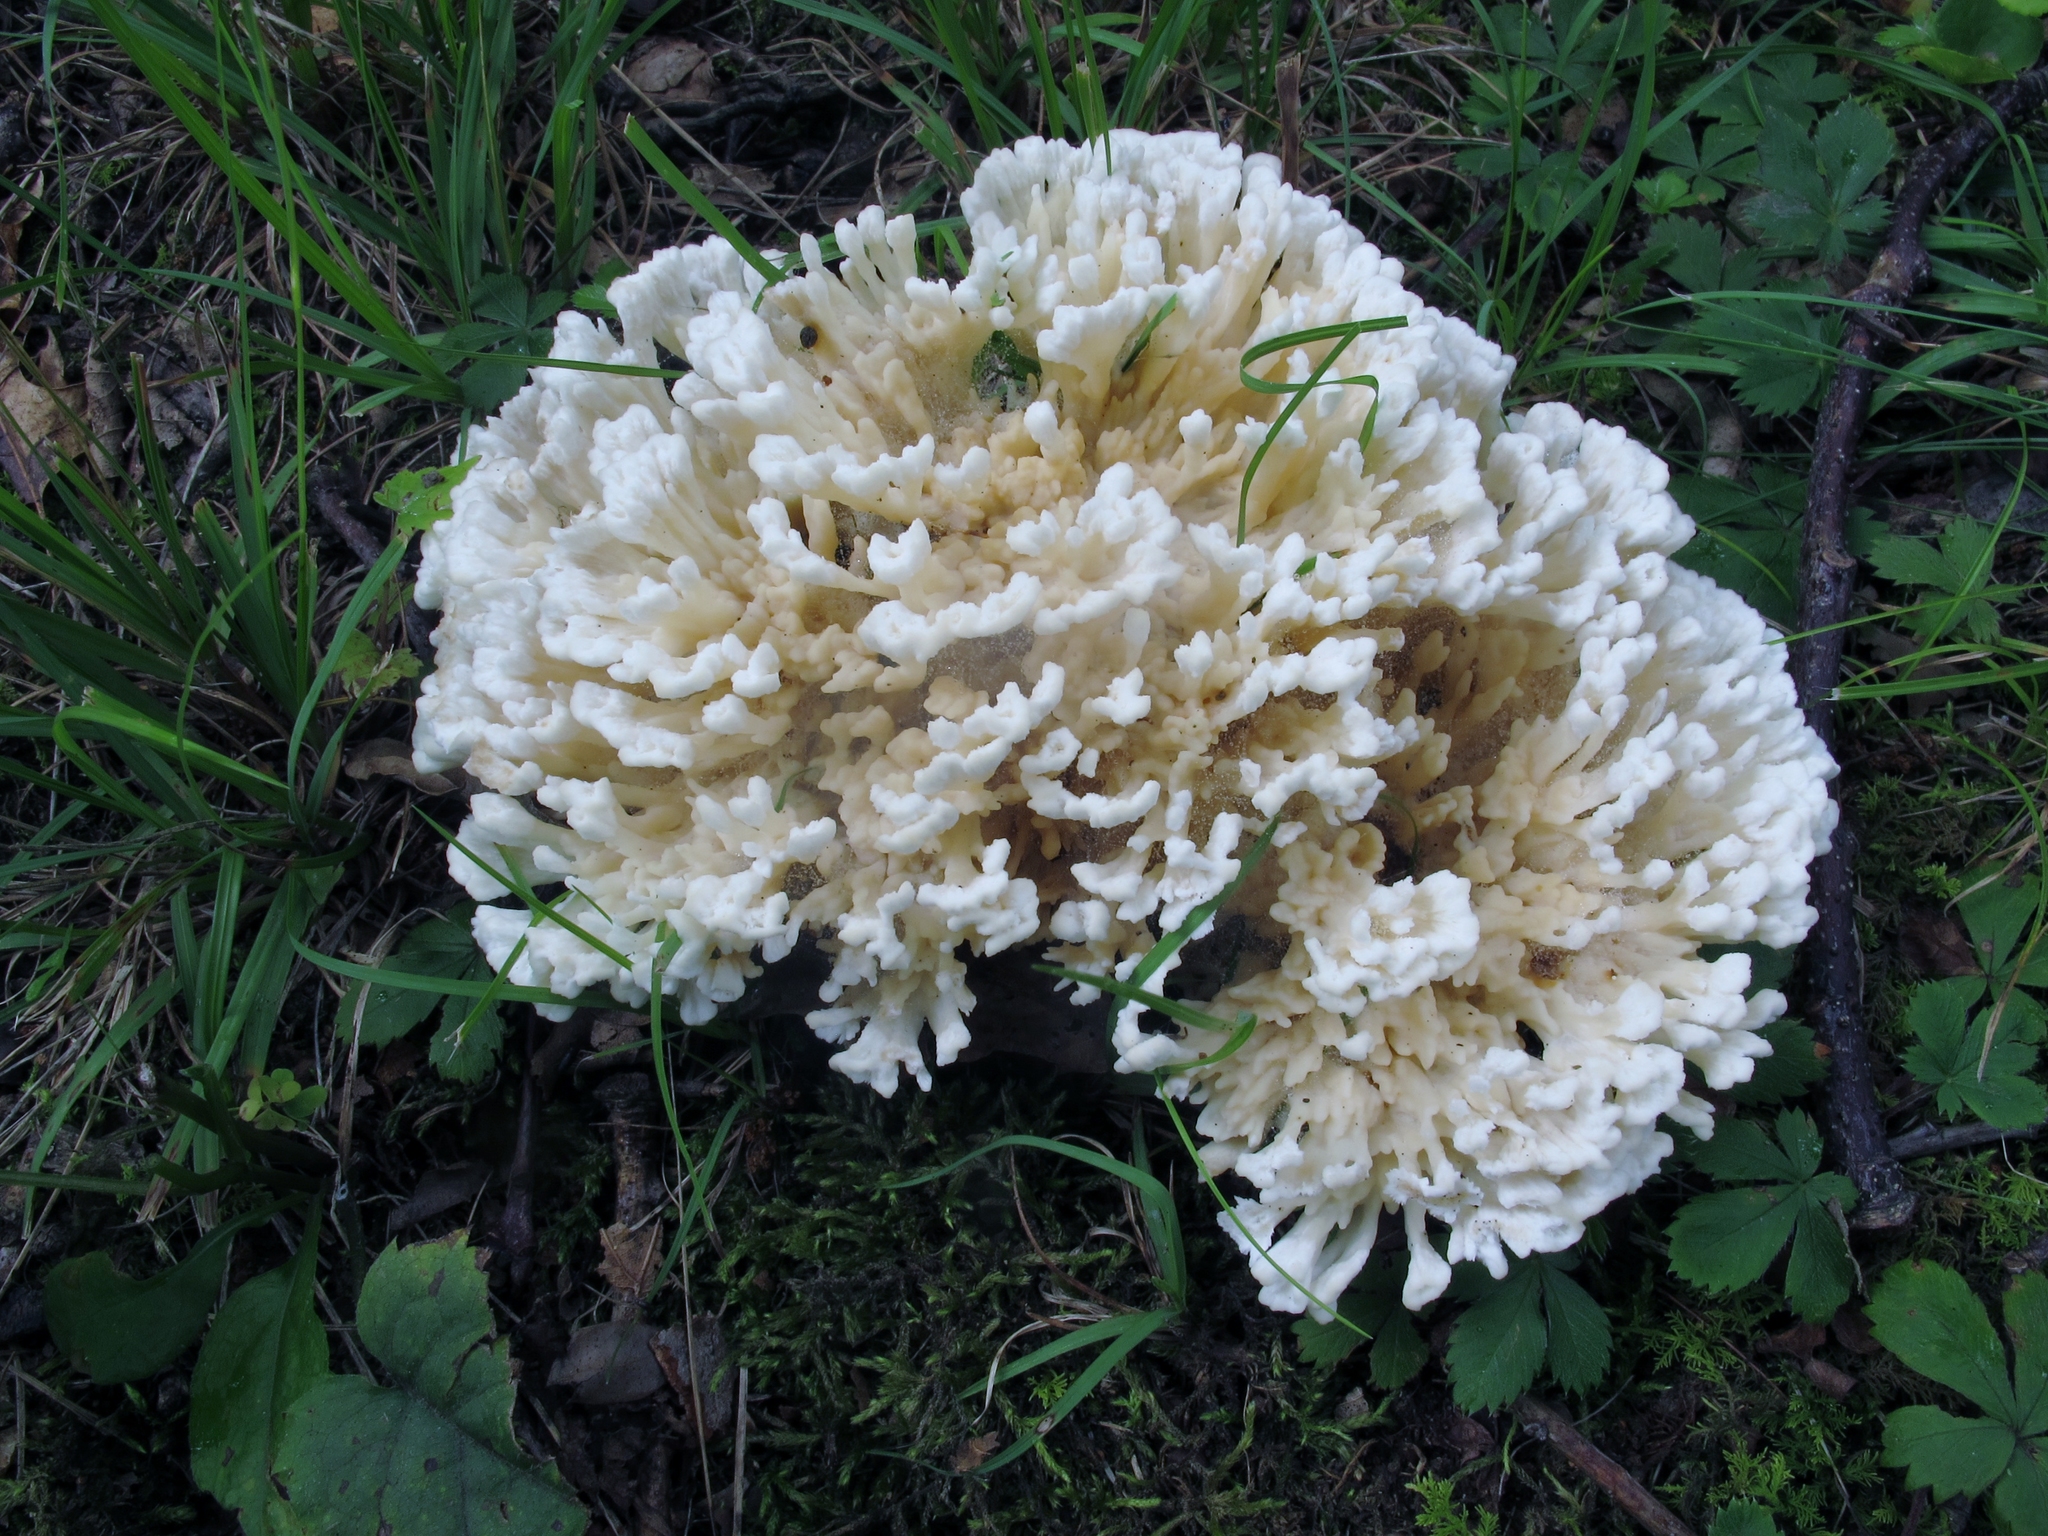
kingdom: Fungi
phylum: Basidiomycota
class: Agaricomycetes
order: Sebacinales
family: Sebacinaceae
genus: Sebacina
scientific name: Sebacina schweinitzii
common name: Jellied false coral fungus
